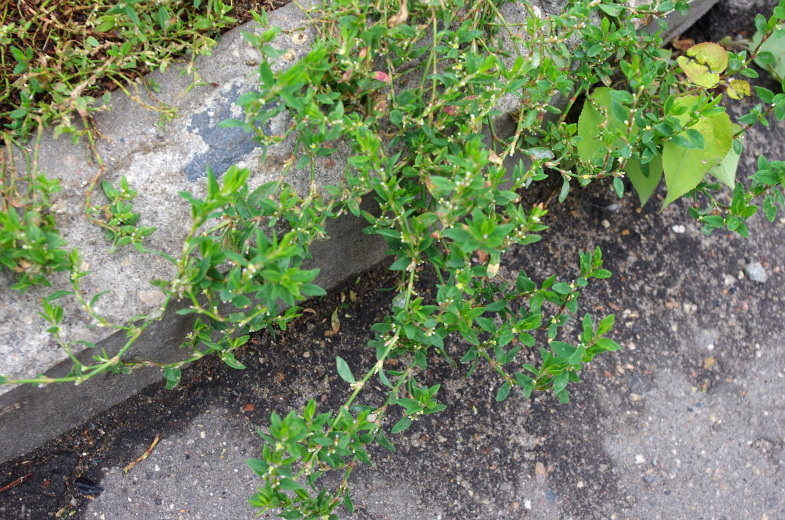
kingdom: Plantae
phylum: Tracheophyta
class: Magnoliopsida
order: Caryophyllales
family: Polygonaceae
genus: Polygonum
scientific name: Polygonum
